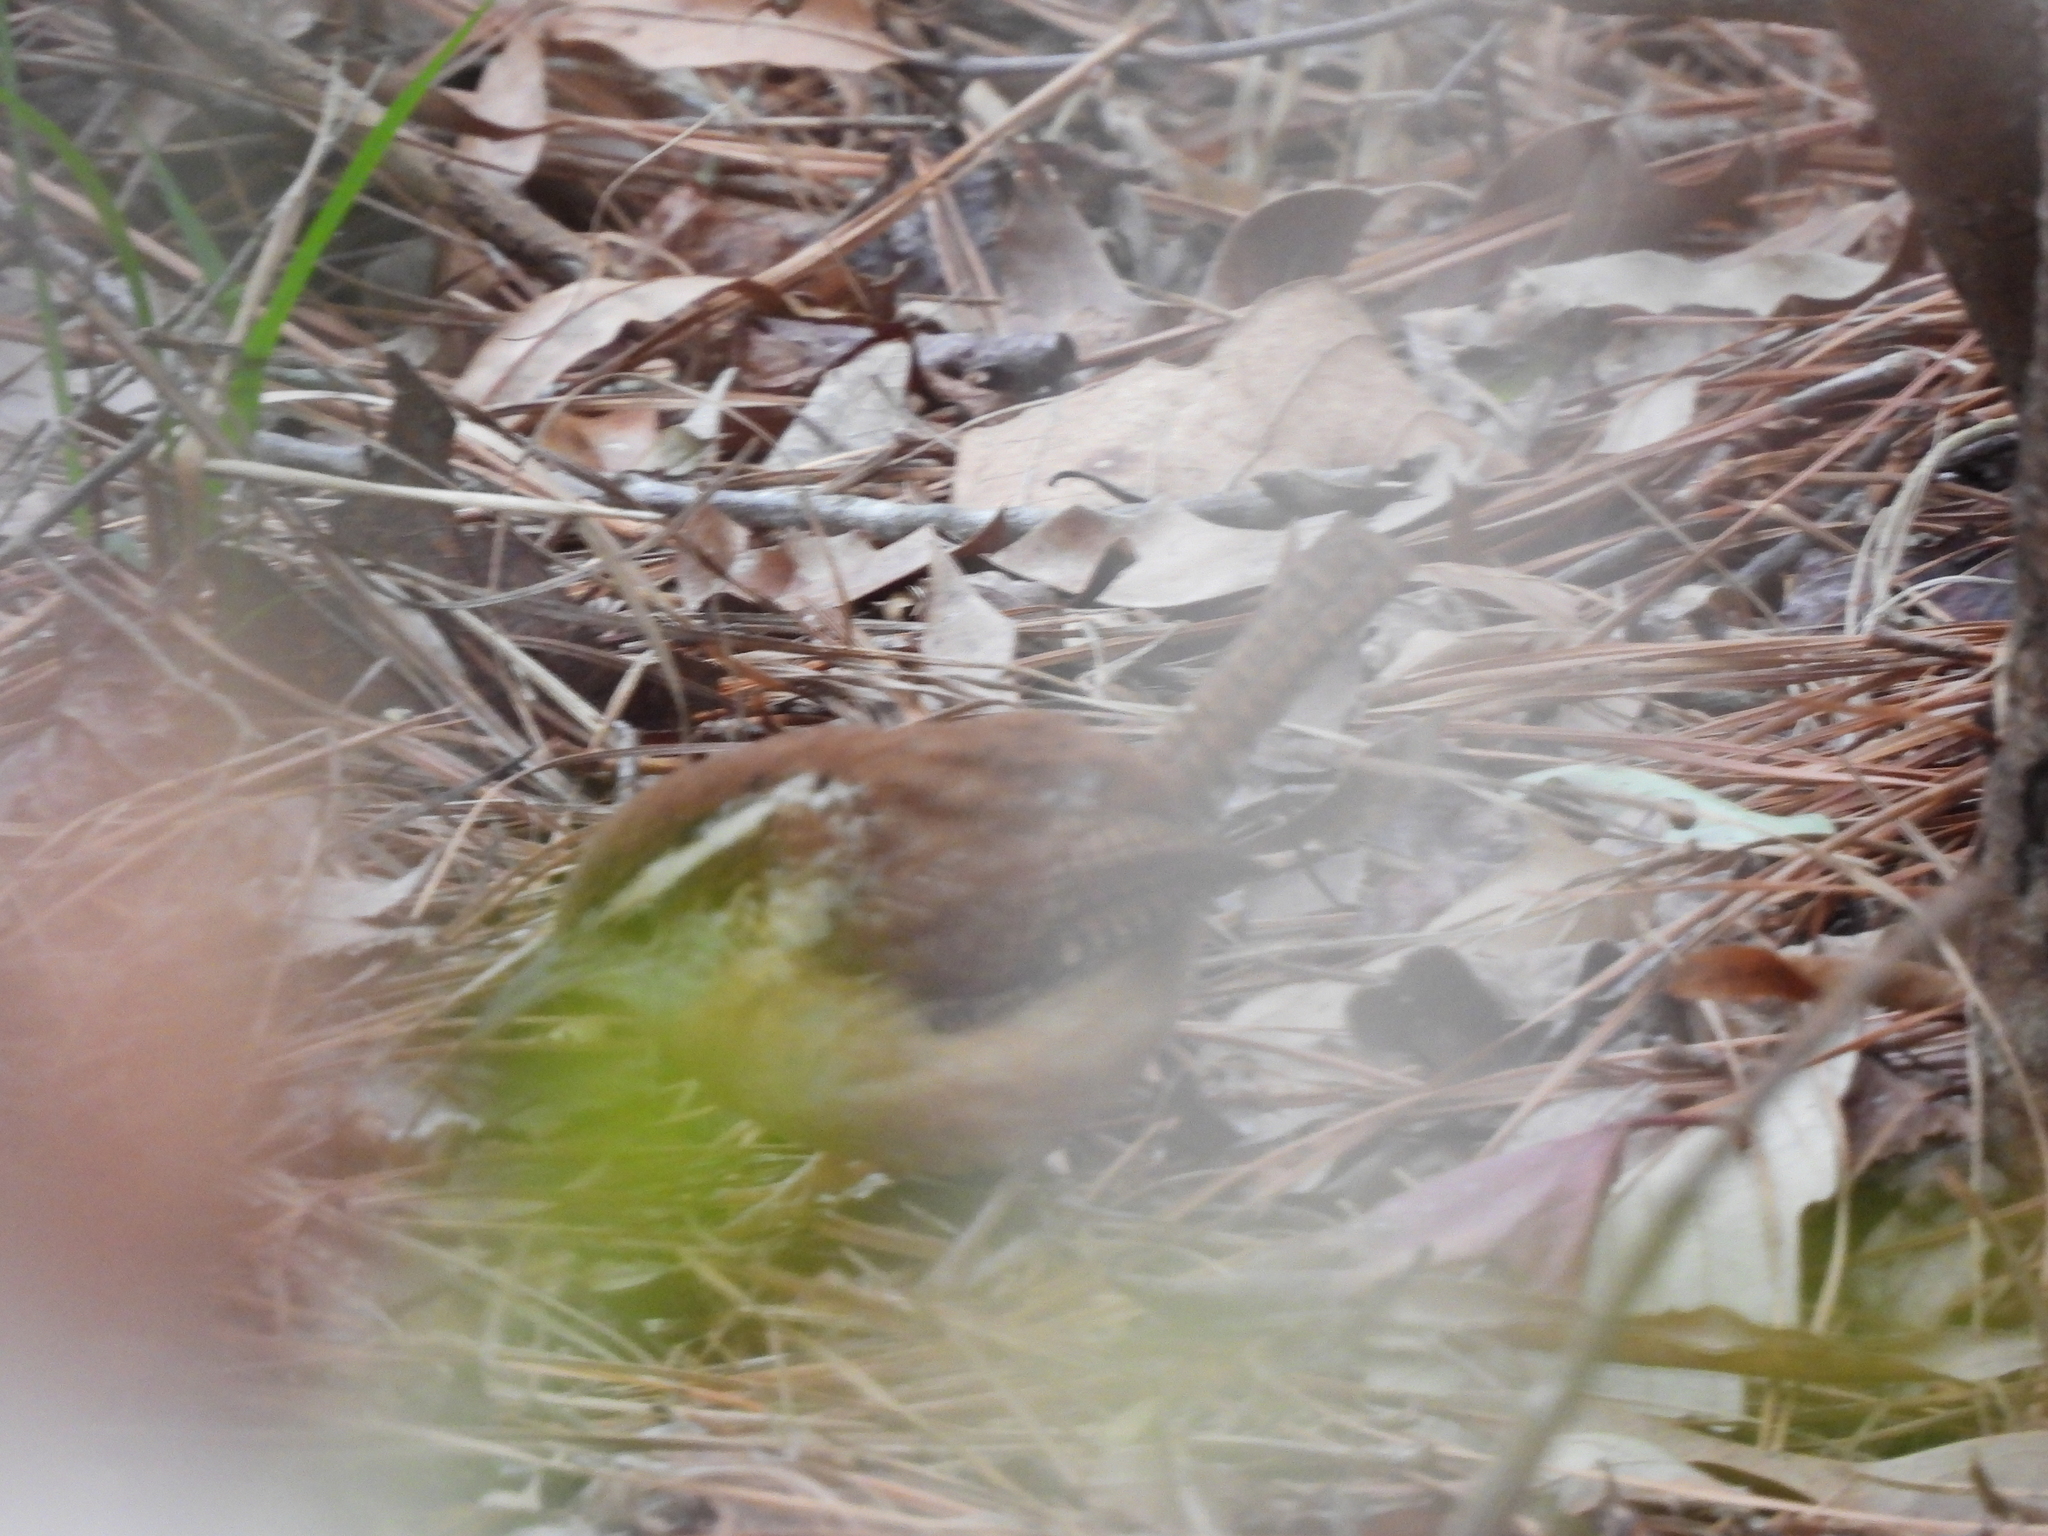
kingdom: Animalia
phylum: Chordata
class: Aves
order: Passeriformes
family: Troglodytidae
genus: Thryothorus
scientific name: Thryothorus ludovicianus
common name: Carolina wren
